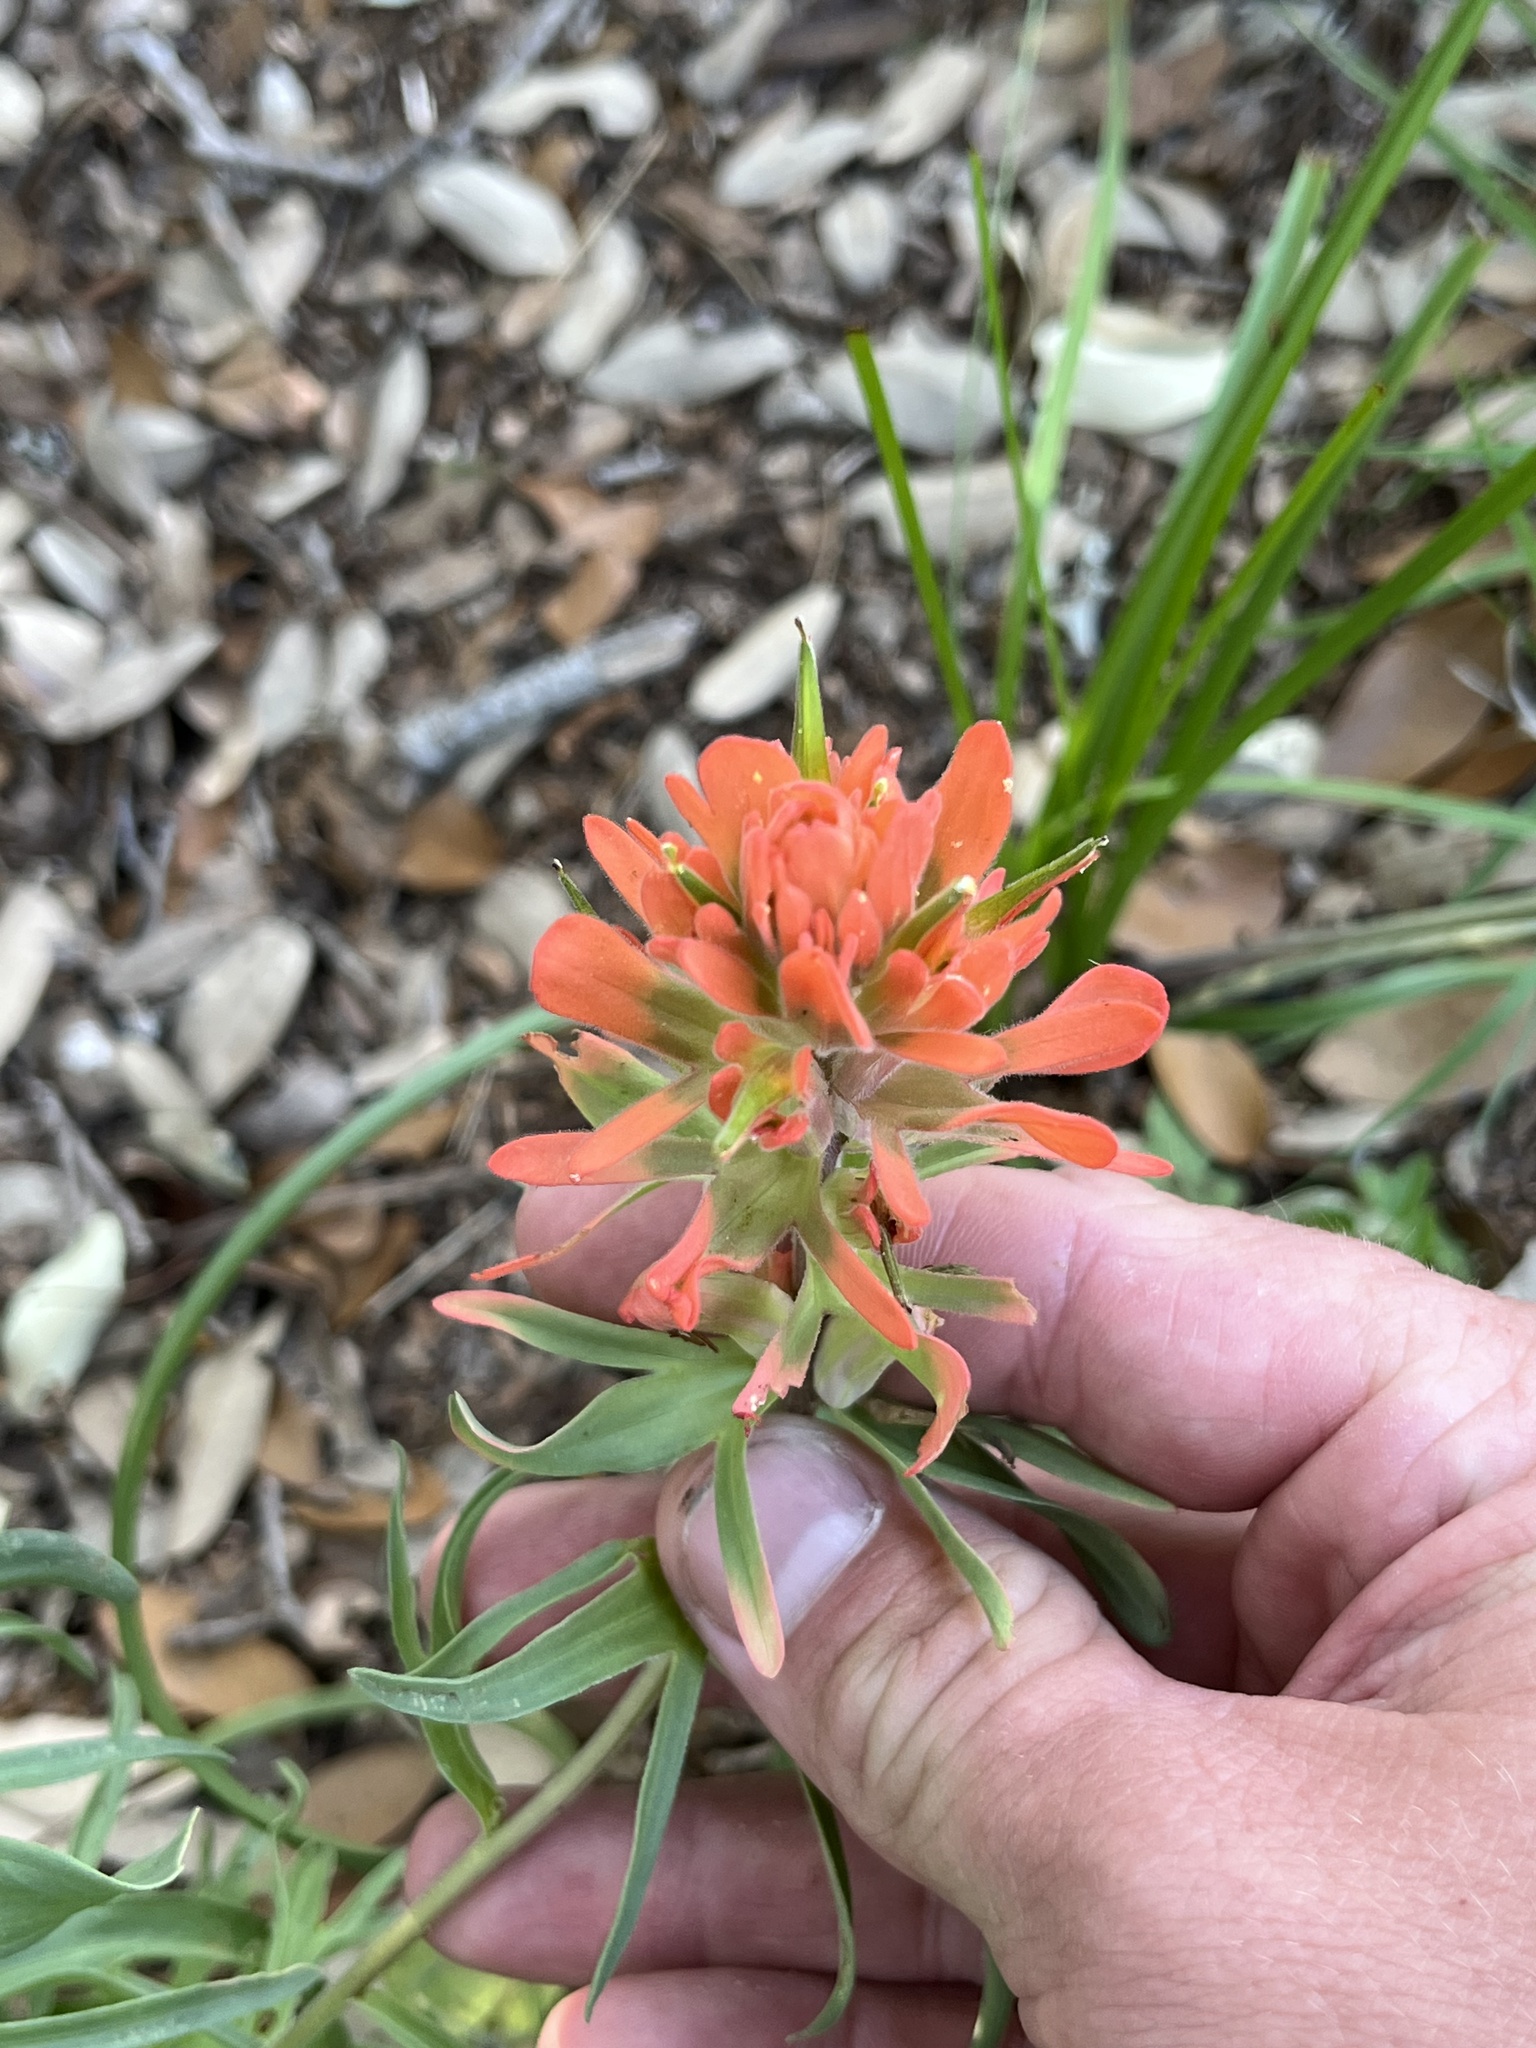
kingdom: Plantae
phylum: Tracheophyta
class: Magnoliopsida
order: Lamiales
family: Orobanchaceae
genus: Castilleja
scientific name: Castilleja lindheimeri
